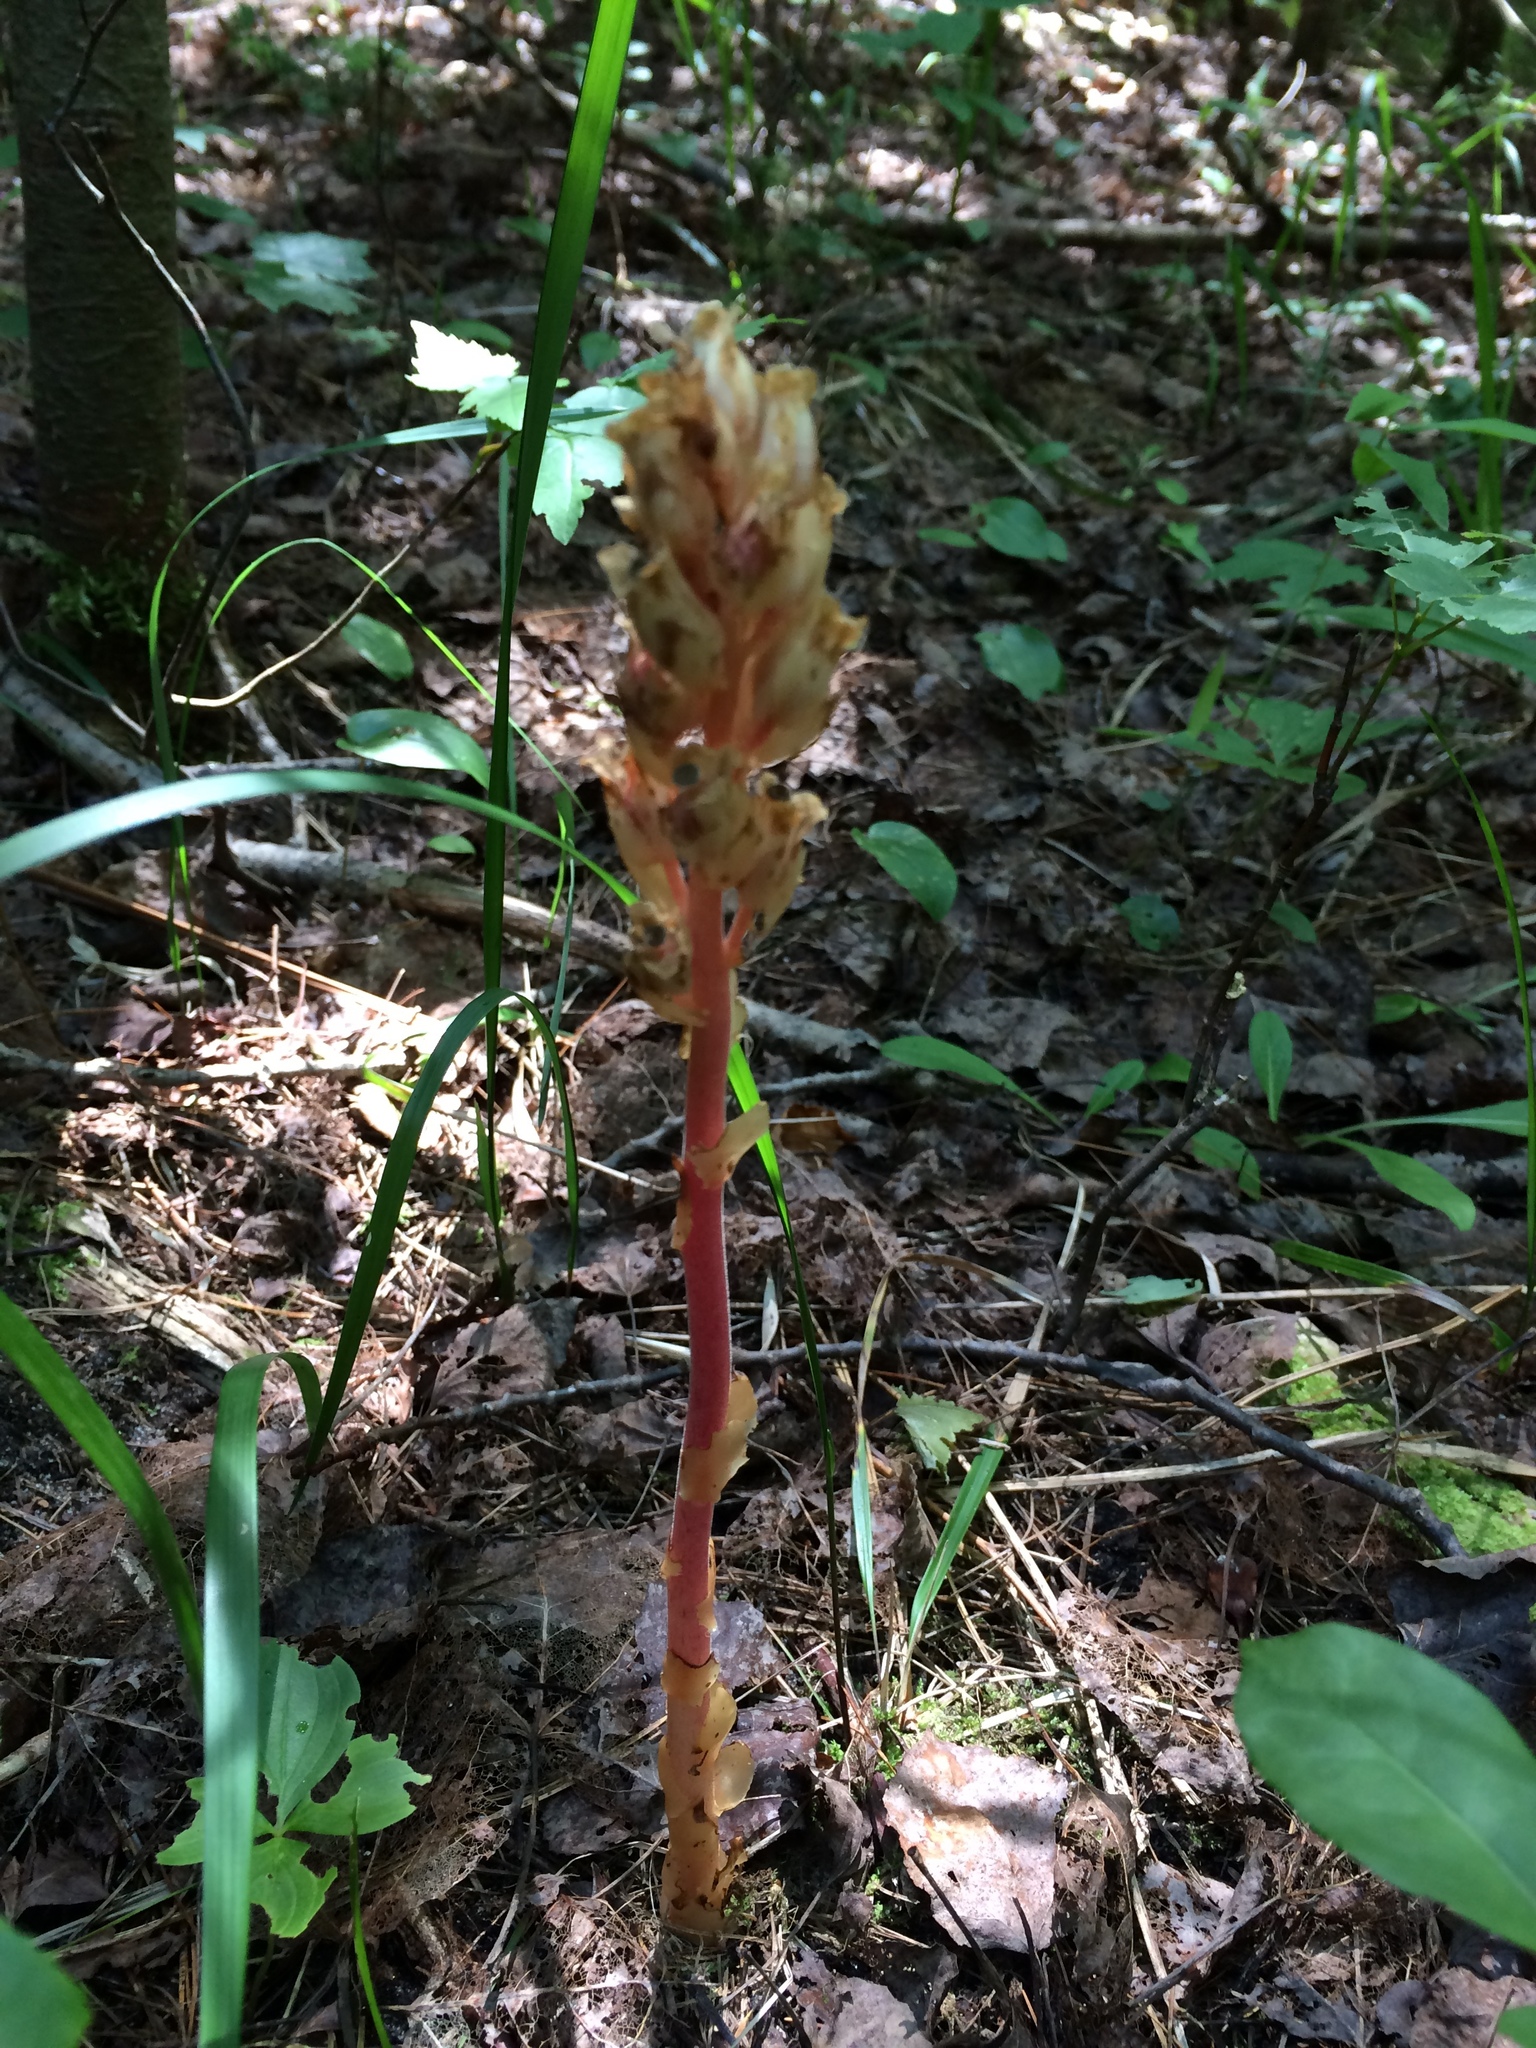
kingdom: Plantae
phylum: Tracheophyta
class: Magnoliopsida
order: Ericales
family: Ericaceae
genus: Hypopitys
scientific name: Hypopitys monotropa
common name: Yellow bird's-nest
